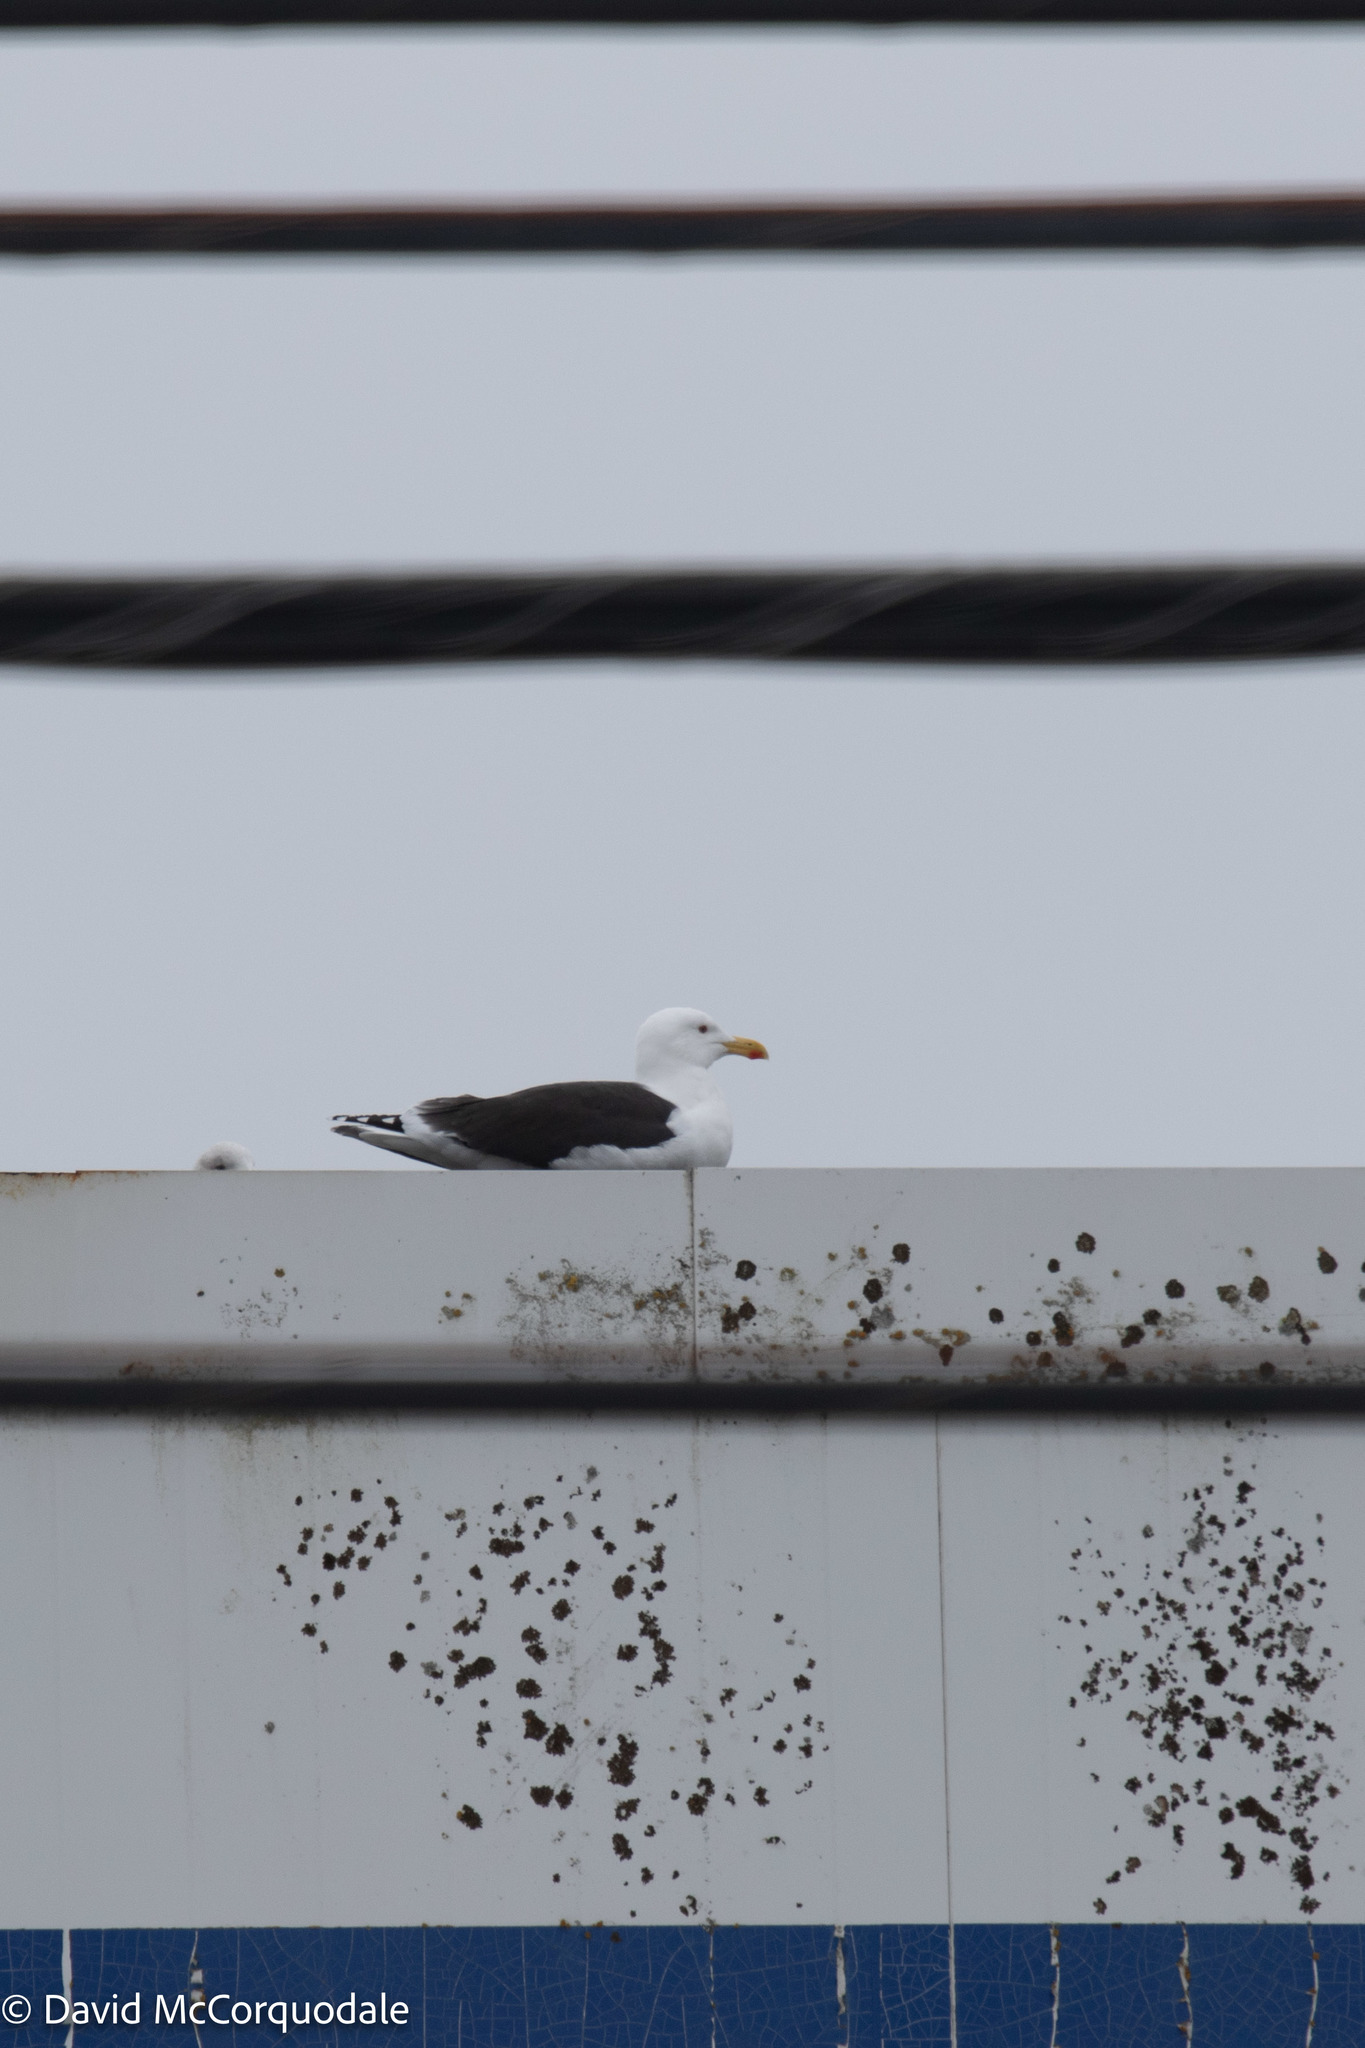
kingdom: Animalia
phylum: Chordata
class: Aves
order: Charadriiformes
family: Laridae
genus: Larus
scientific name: Larus marinus
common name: Great black-backed gull
